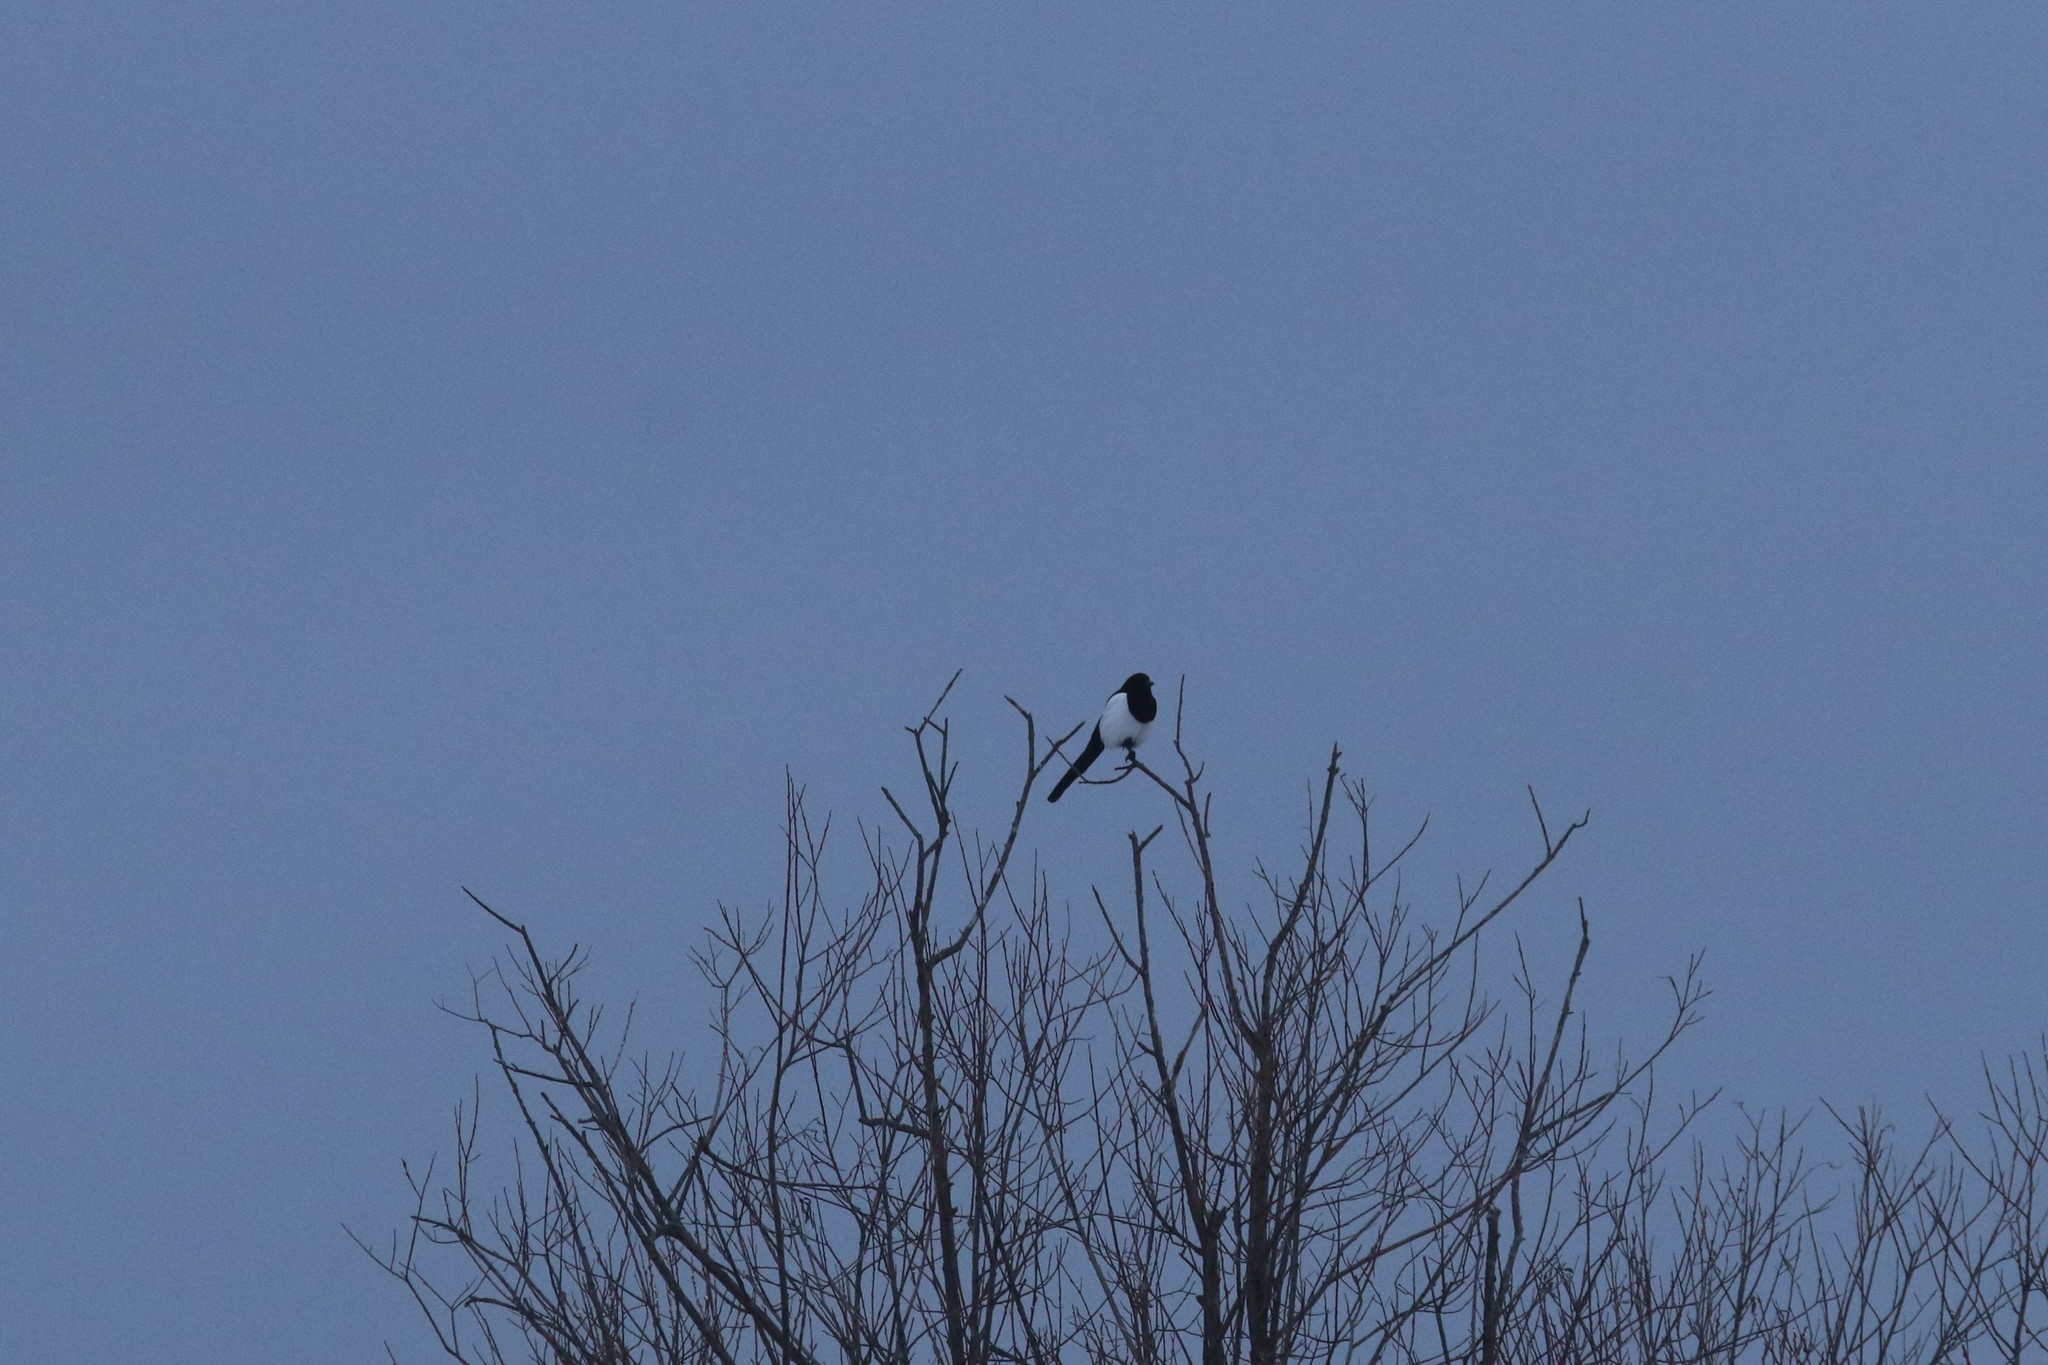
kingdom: Animalia
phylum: Chordata
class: Aves
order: Passeriformes
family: Corvidae
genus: Pica
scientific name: Pica pica
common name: Eurasian magpie
